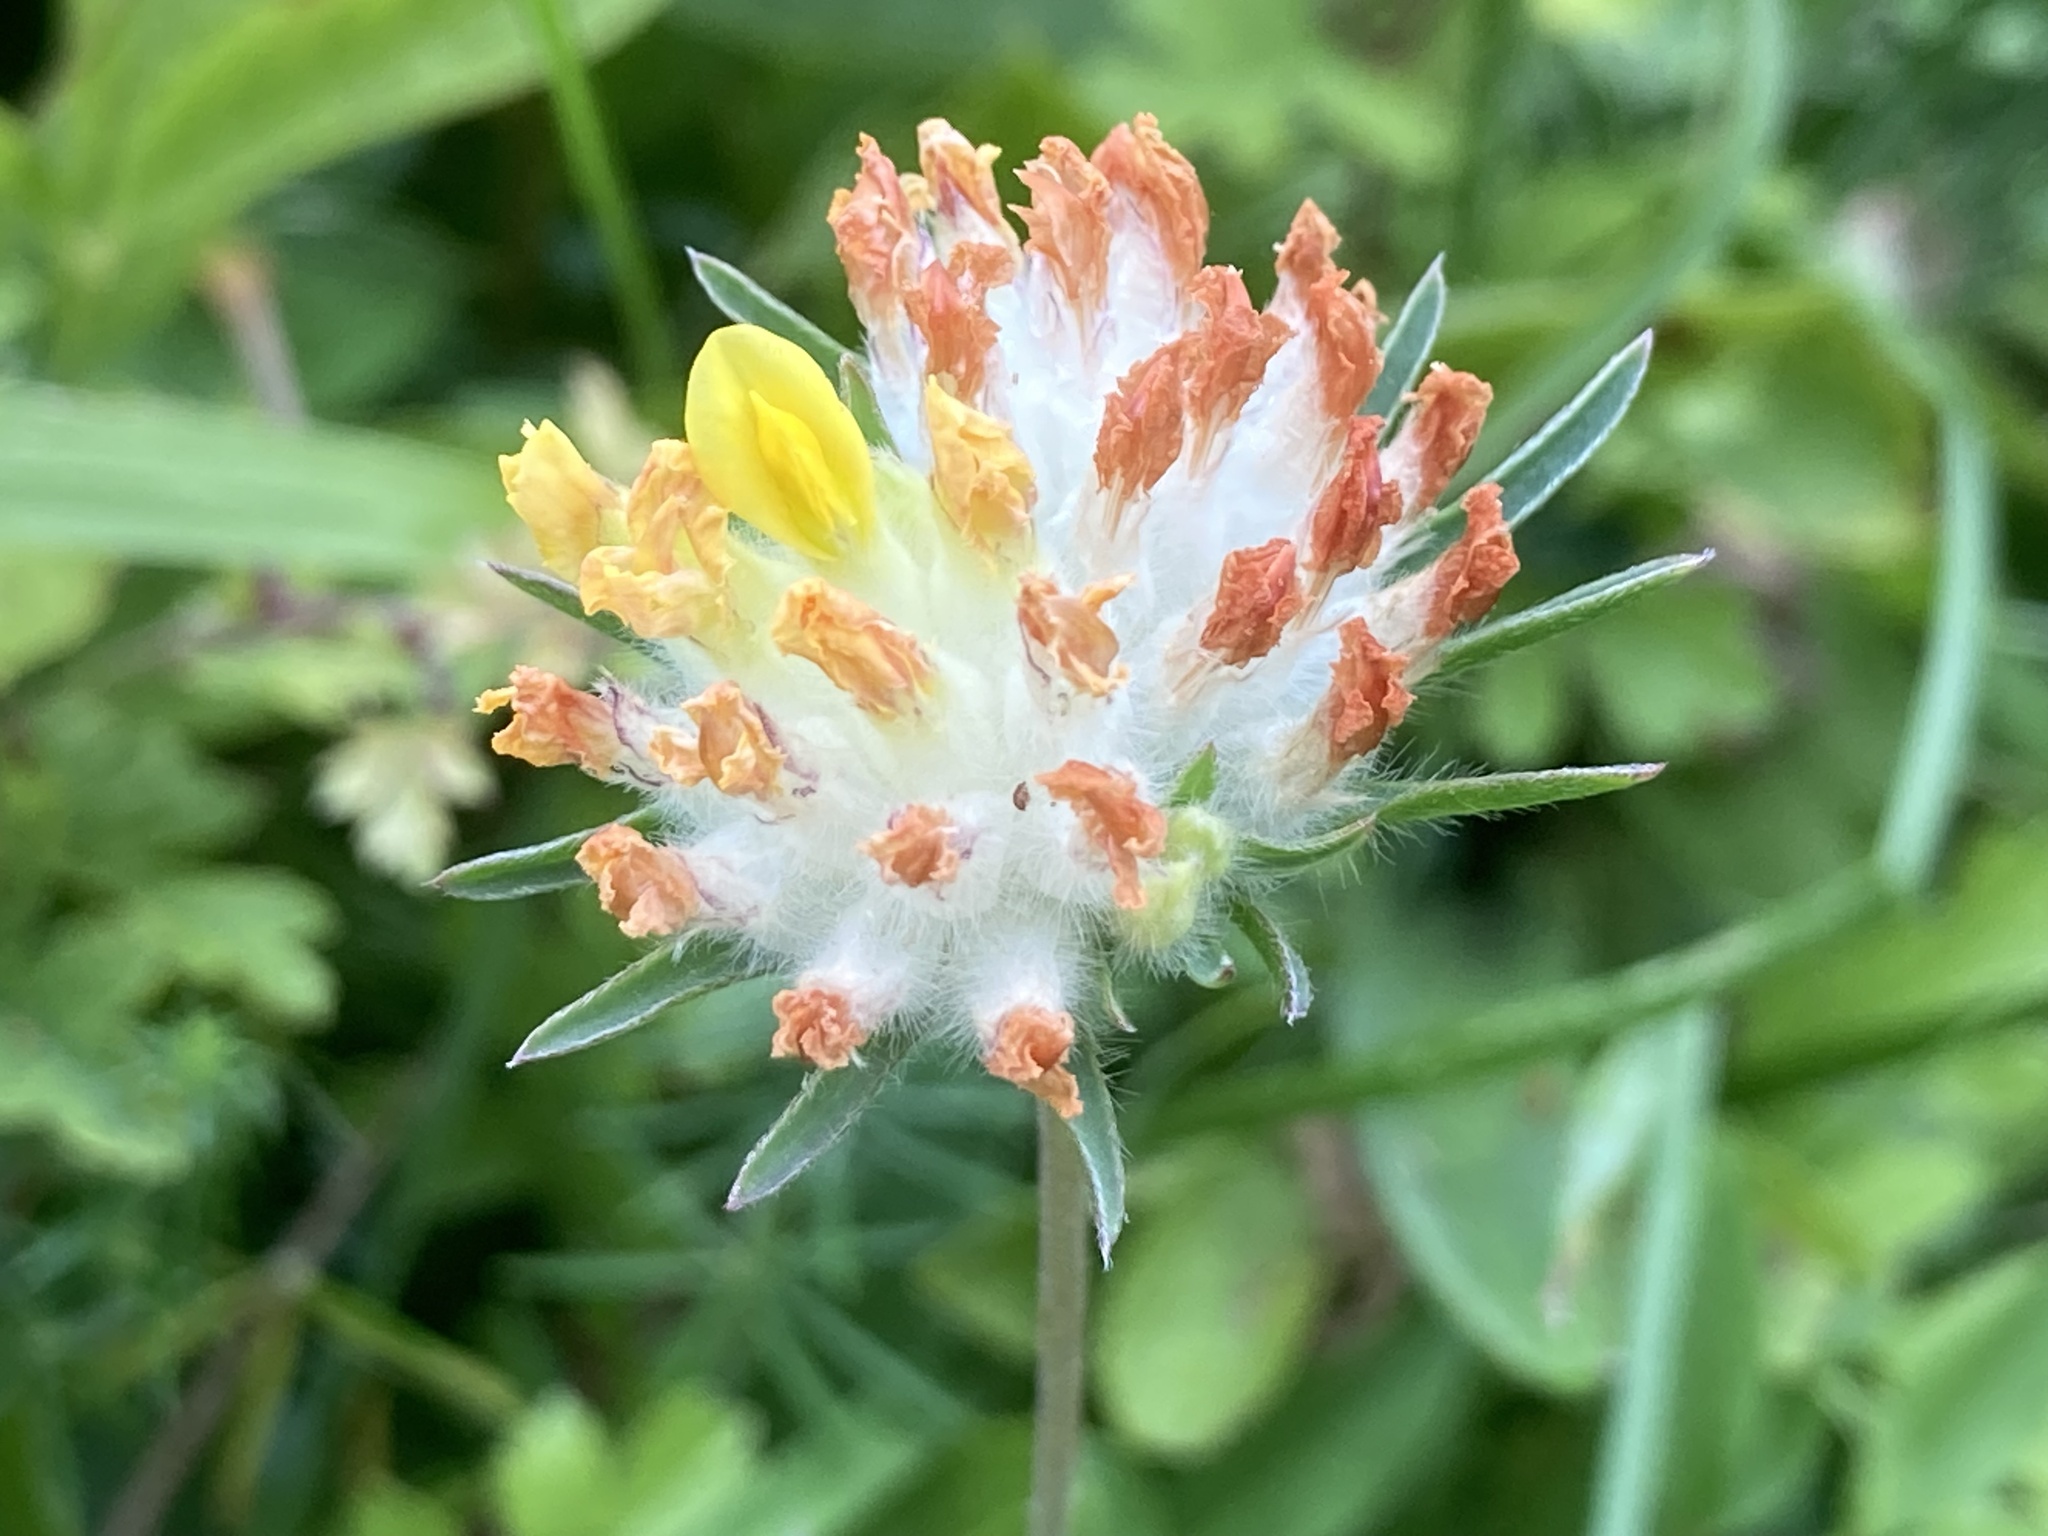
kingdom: Plantae
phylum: Tracheophyta
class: Magnoliopsida
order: Fabales
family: Fabaceae
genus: Anthyllis
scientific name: Anthyllis vulneraria
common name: Kidney vetch
